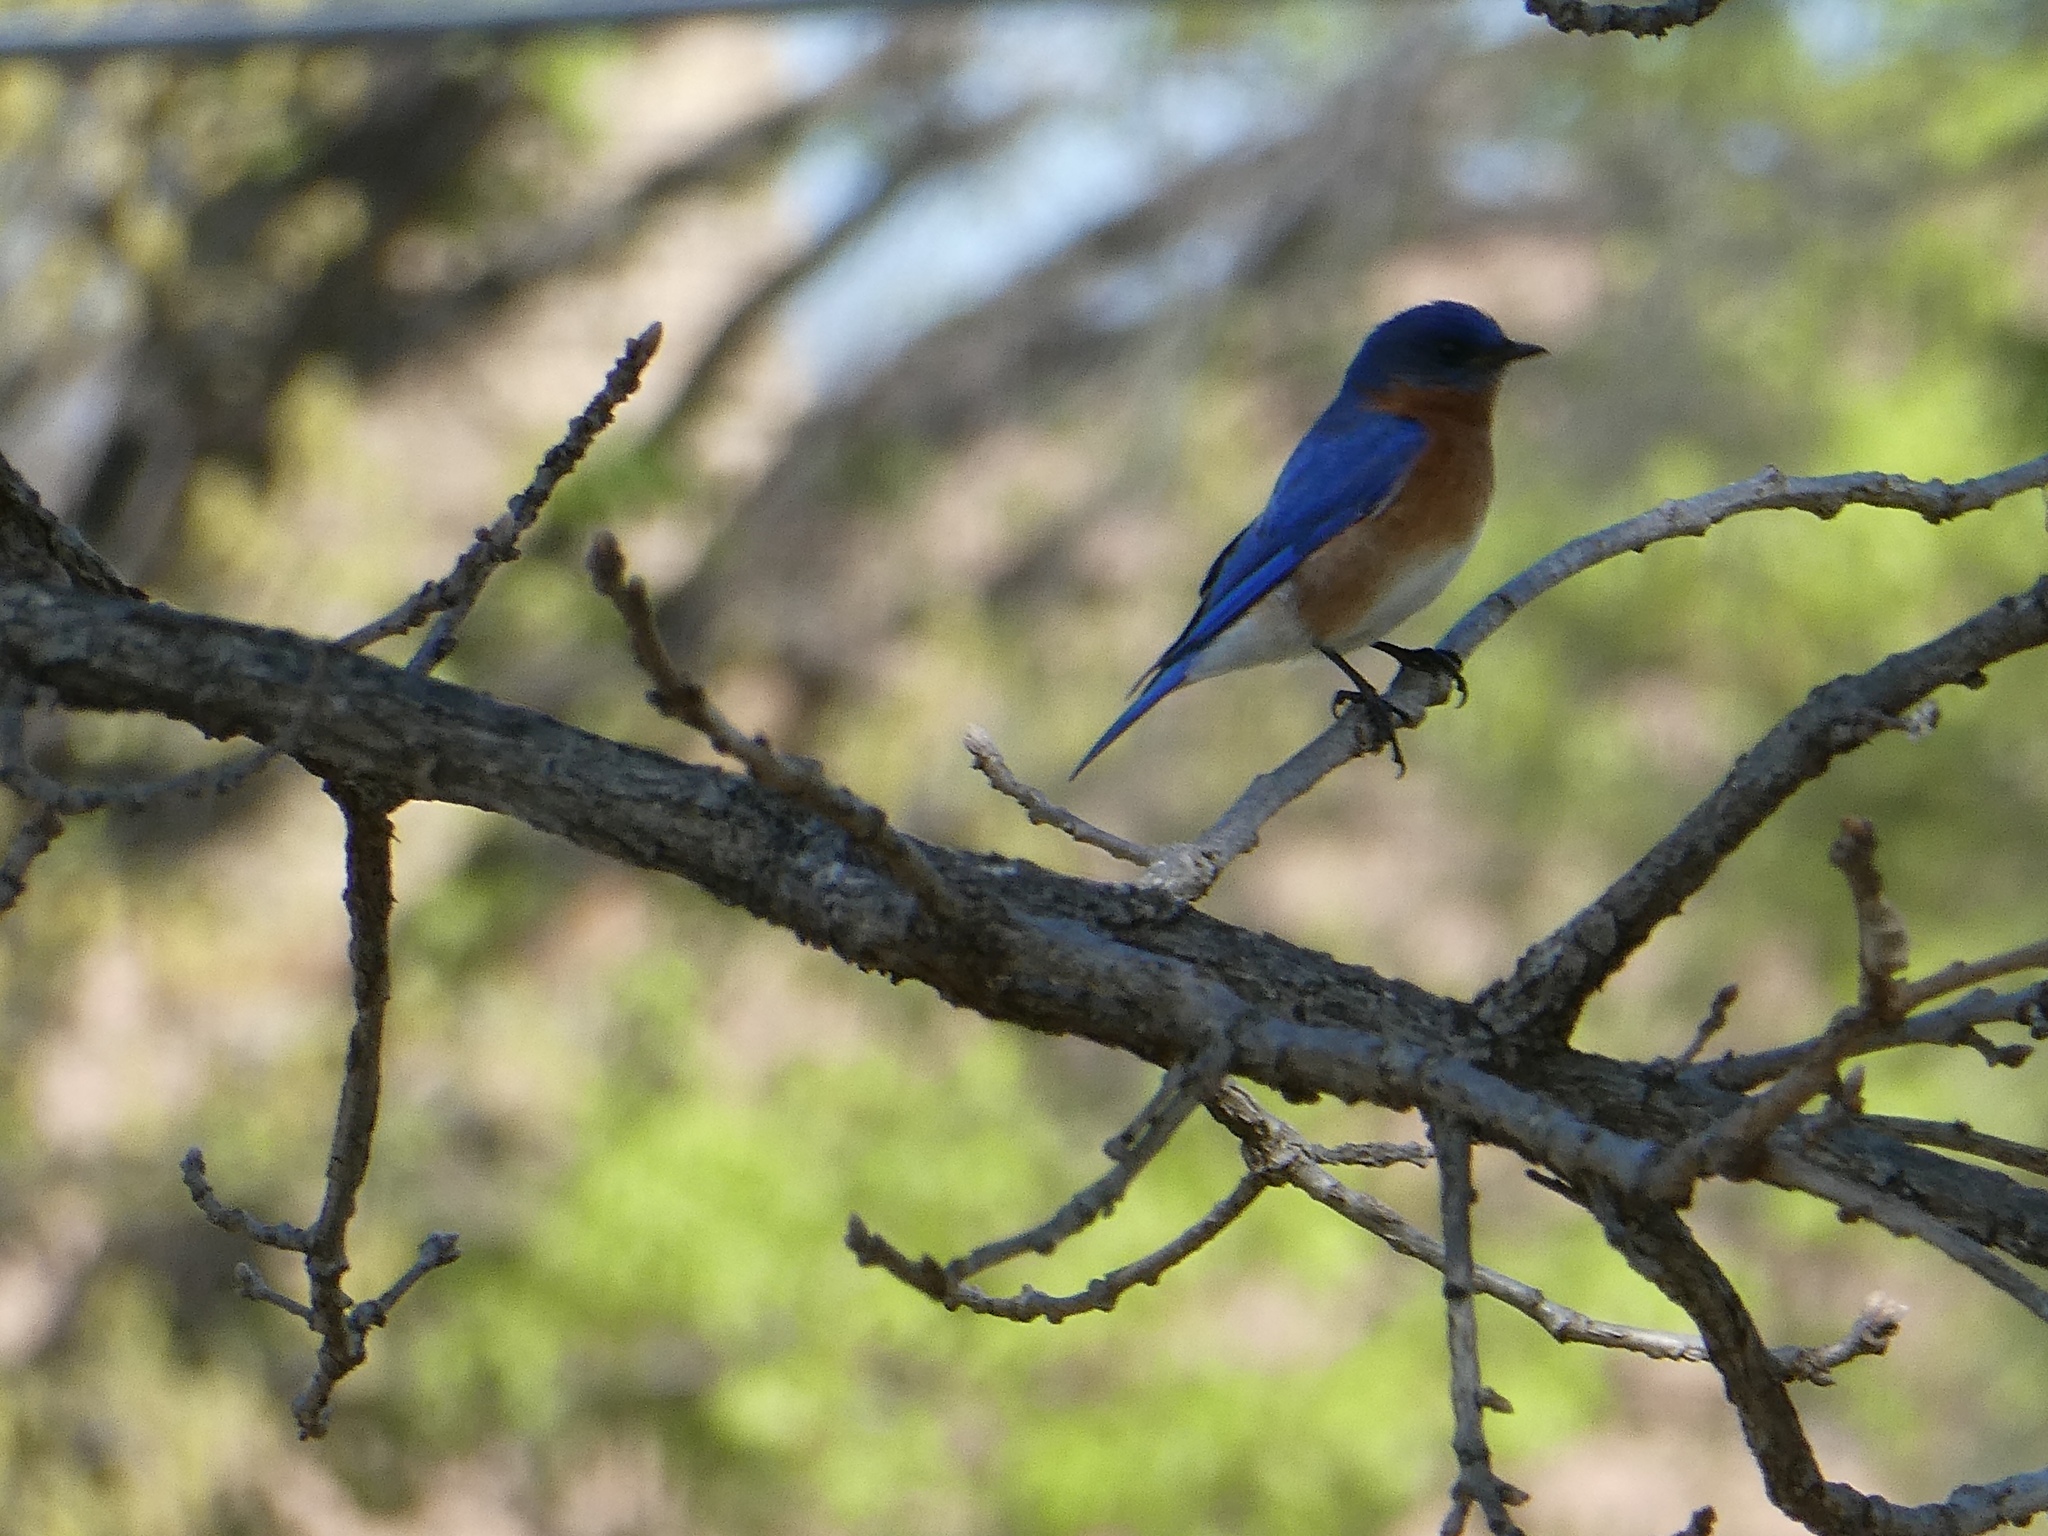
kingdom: Animalia
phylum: Chordata
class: Aves
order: Passeriformes
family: Turdidae
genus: Sialia
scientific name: Sialia sialis
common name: Eastern bluebird
